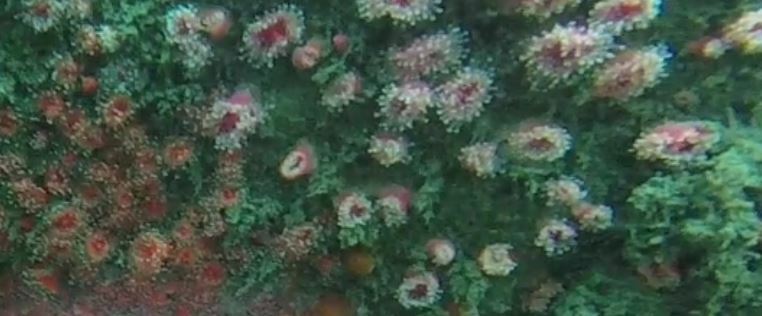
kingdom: Animalia
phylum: Cnidaria
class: Anthozoa
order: Corallimorpharia
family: Corallimorphidae
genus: Corynactis
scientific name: Corynactis californica
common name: Strawberry corallimorpharian
